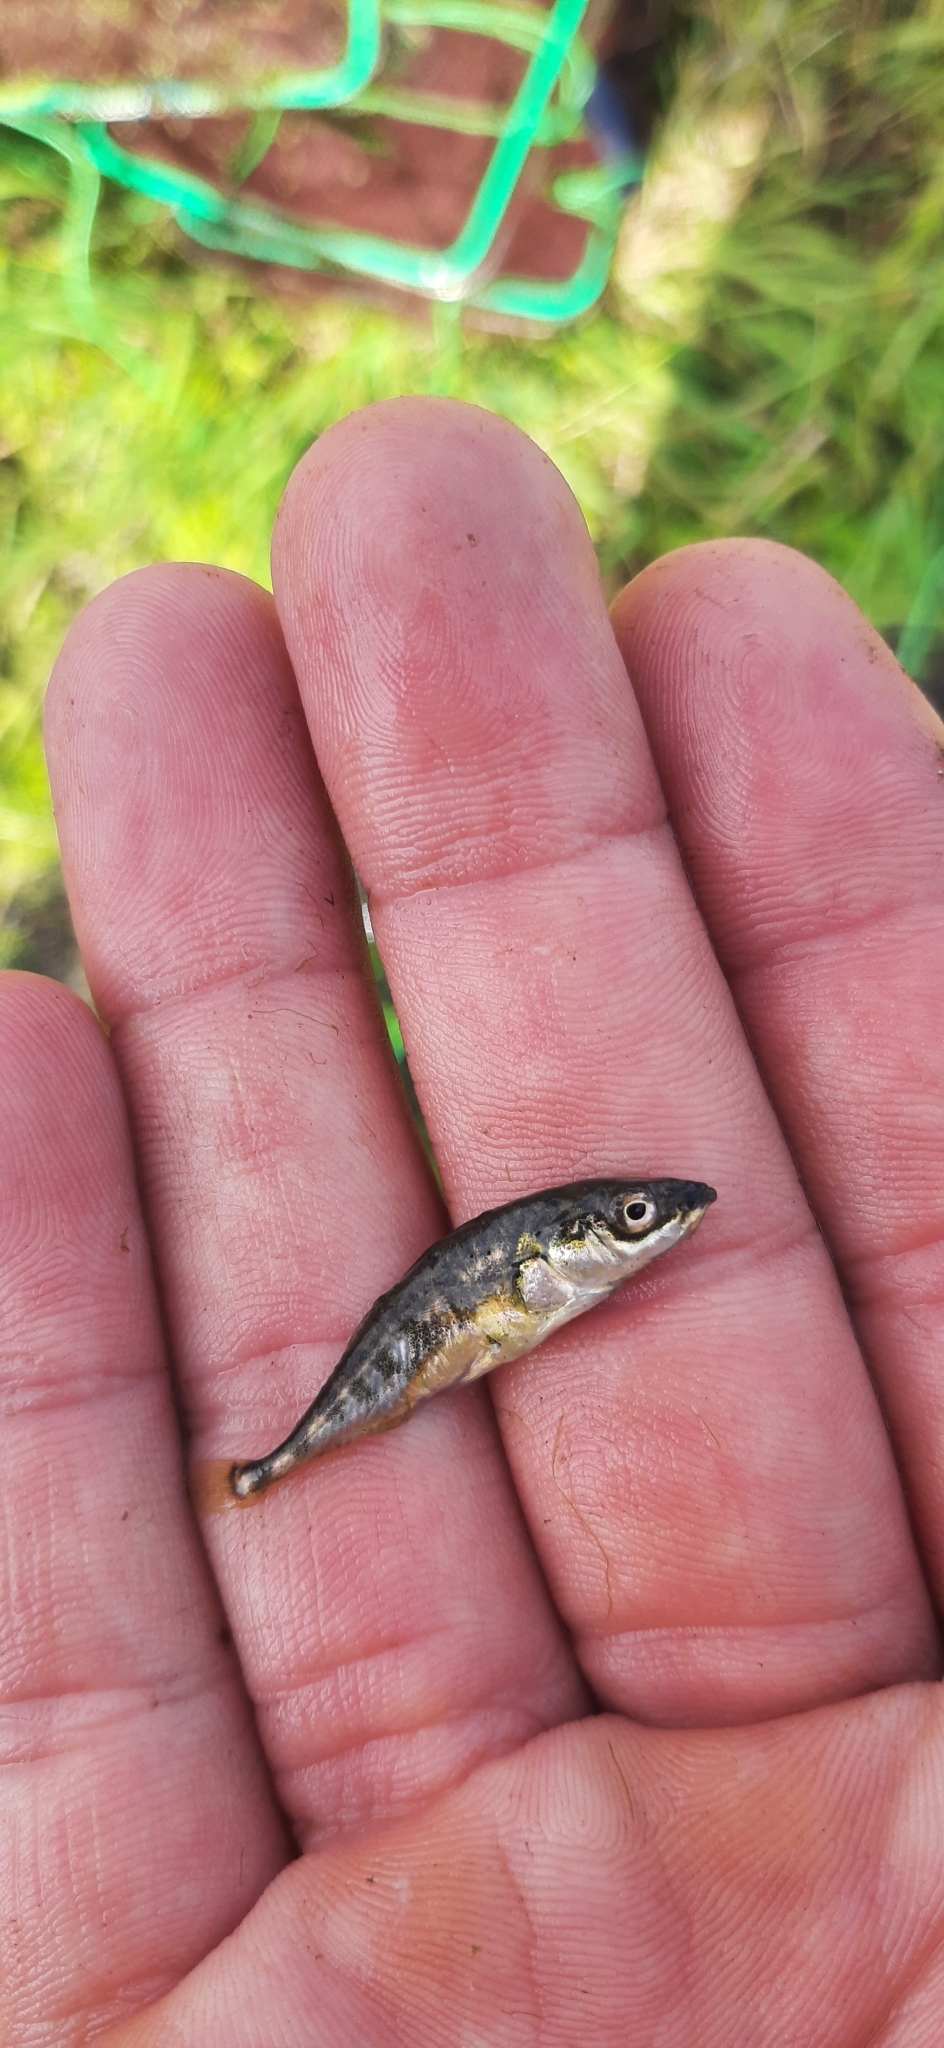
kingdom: Animalia
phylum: Chordata
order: Gasterosteiformes
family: Gasterosteidae
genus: Gasterosteus
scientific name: Gasterosteus aculeatus
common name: Three-spined stickleback
